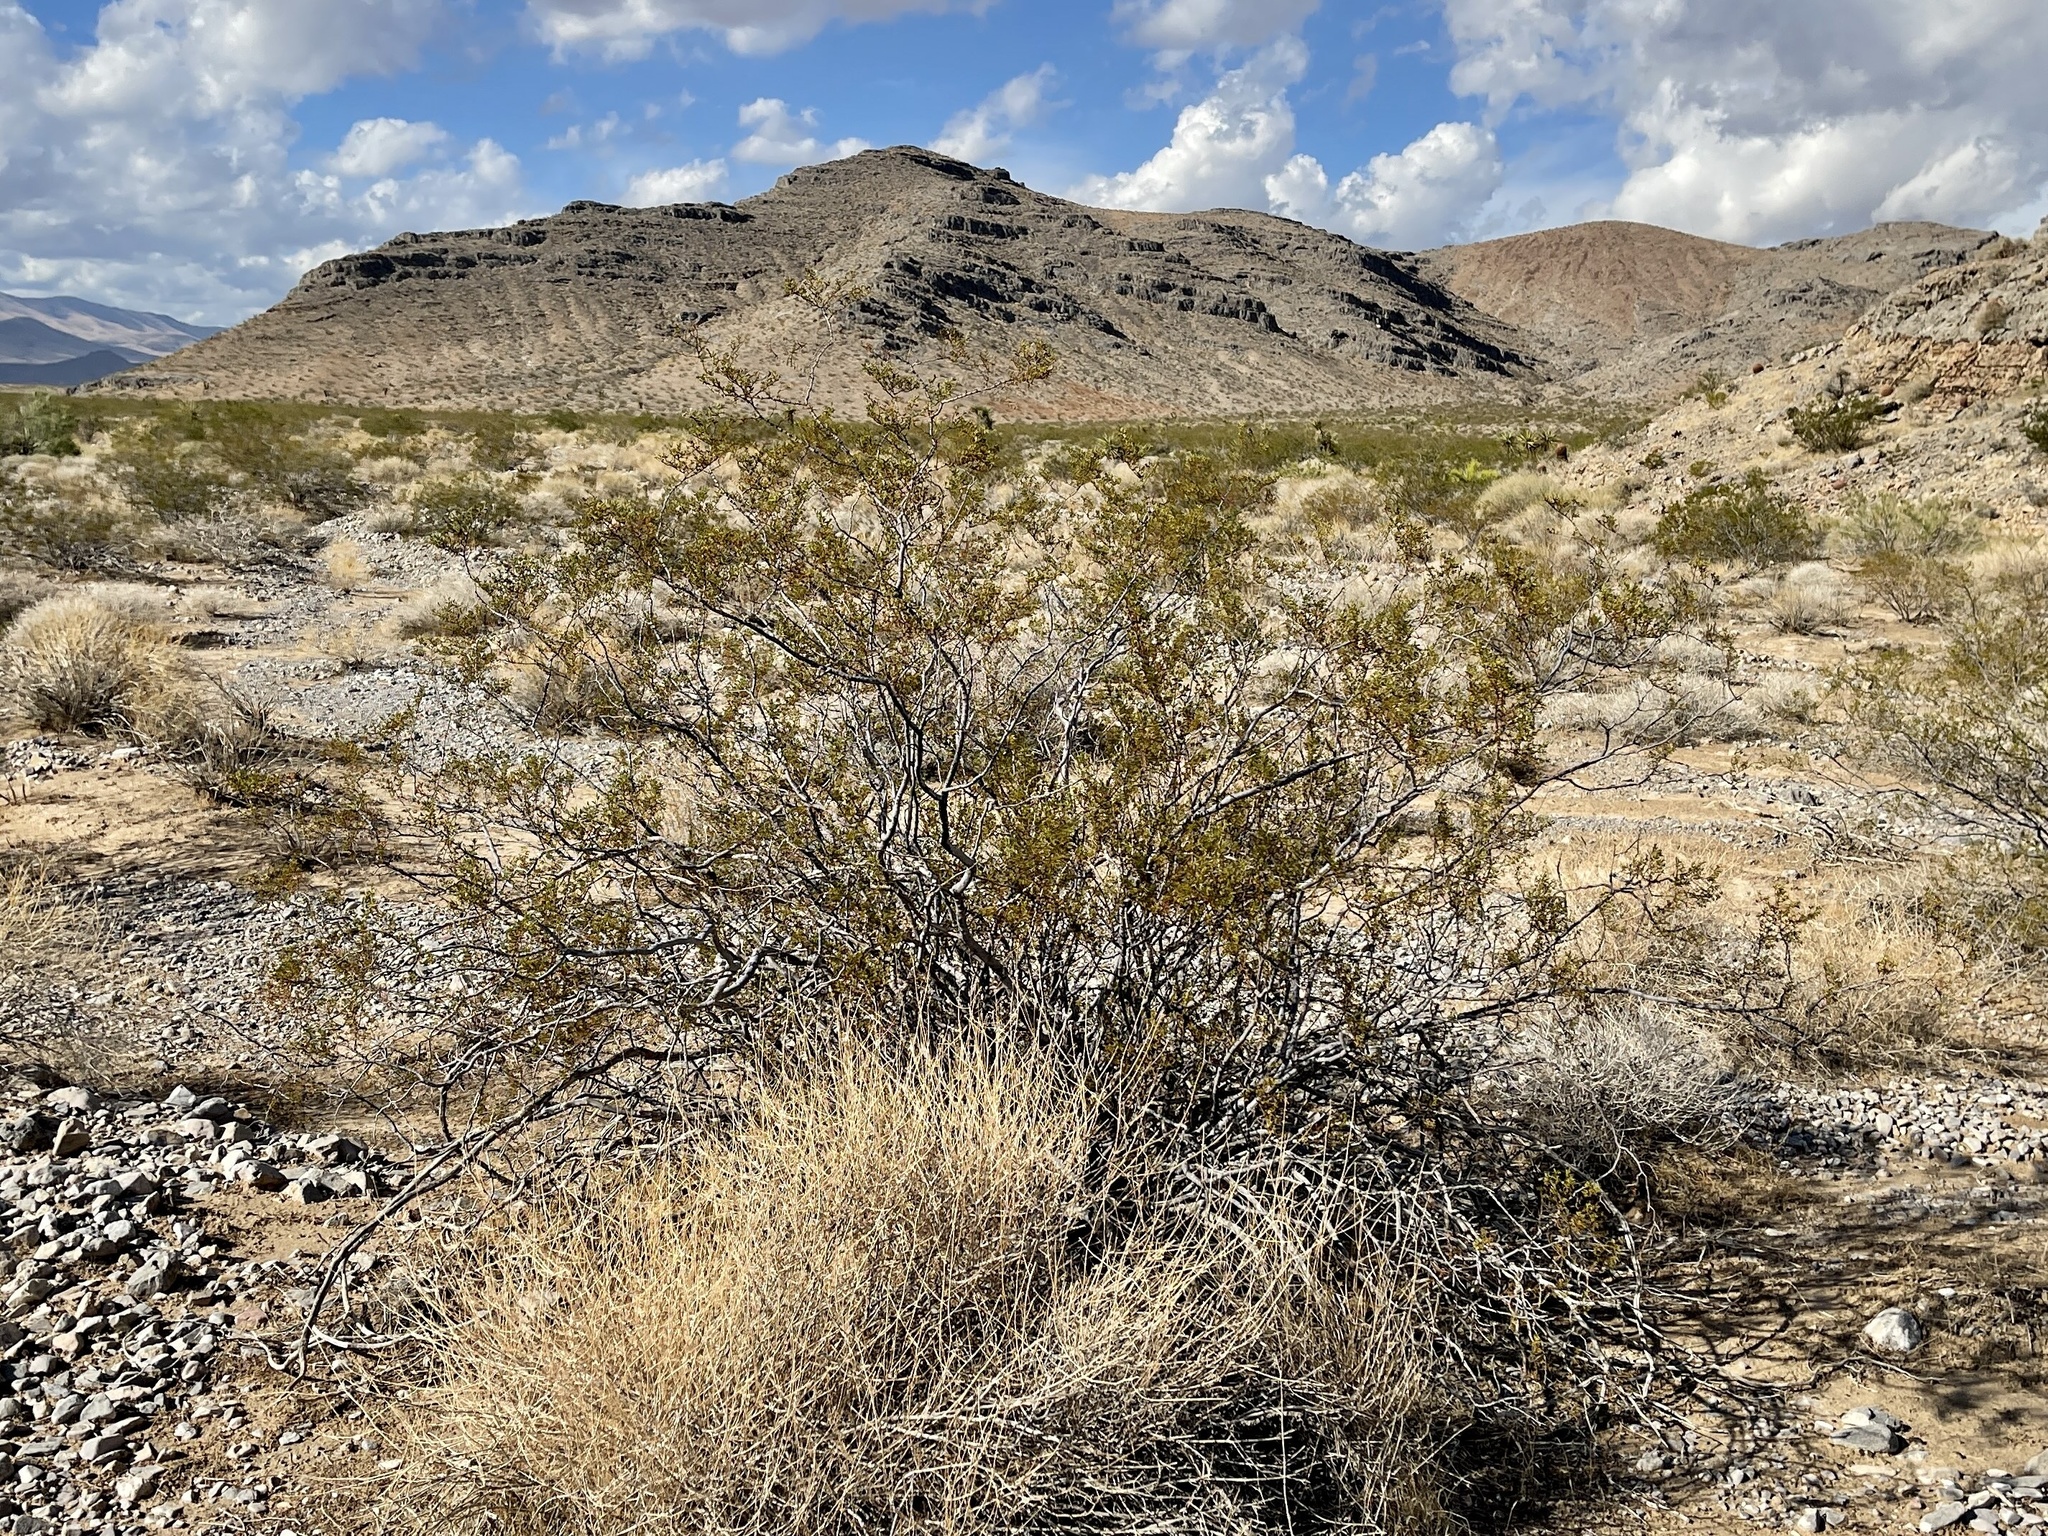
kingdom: Plantae
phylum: Tracheophyta
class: Magnoliopsida
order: Zygophyllales
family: Zygophyllaceae
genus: Larrea
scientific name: Larrea tridentata
